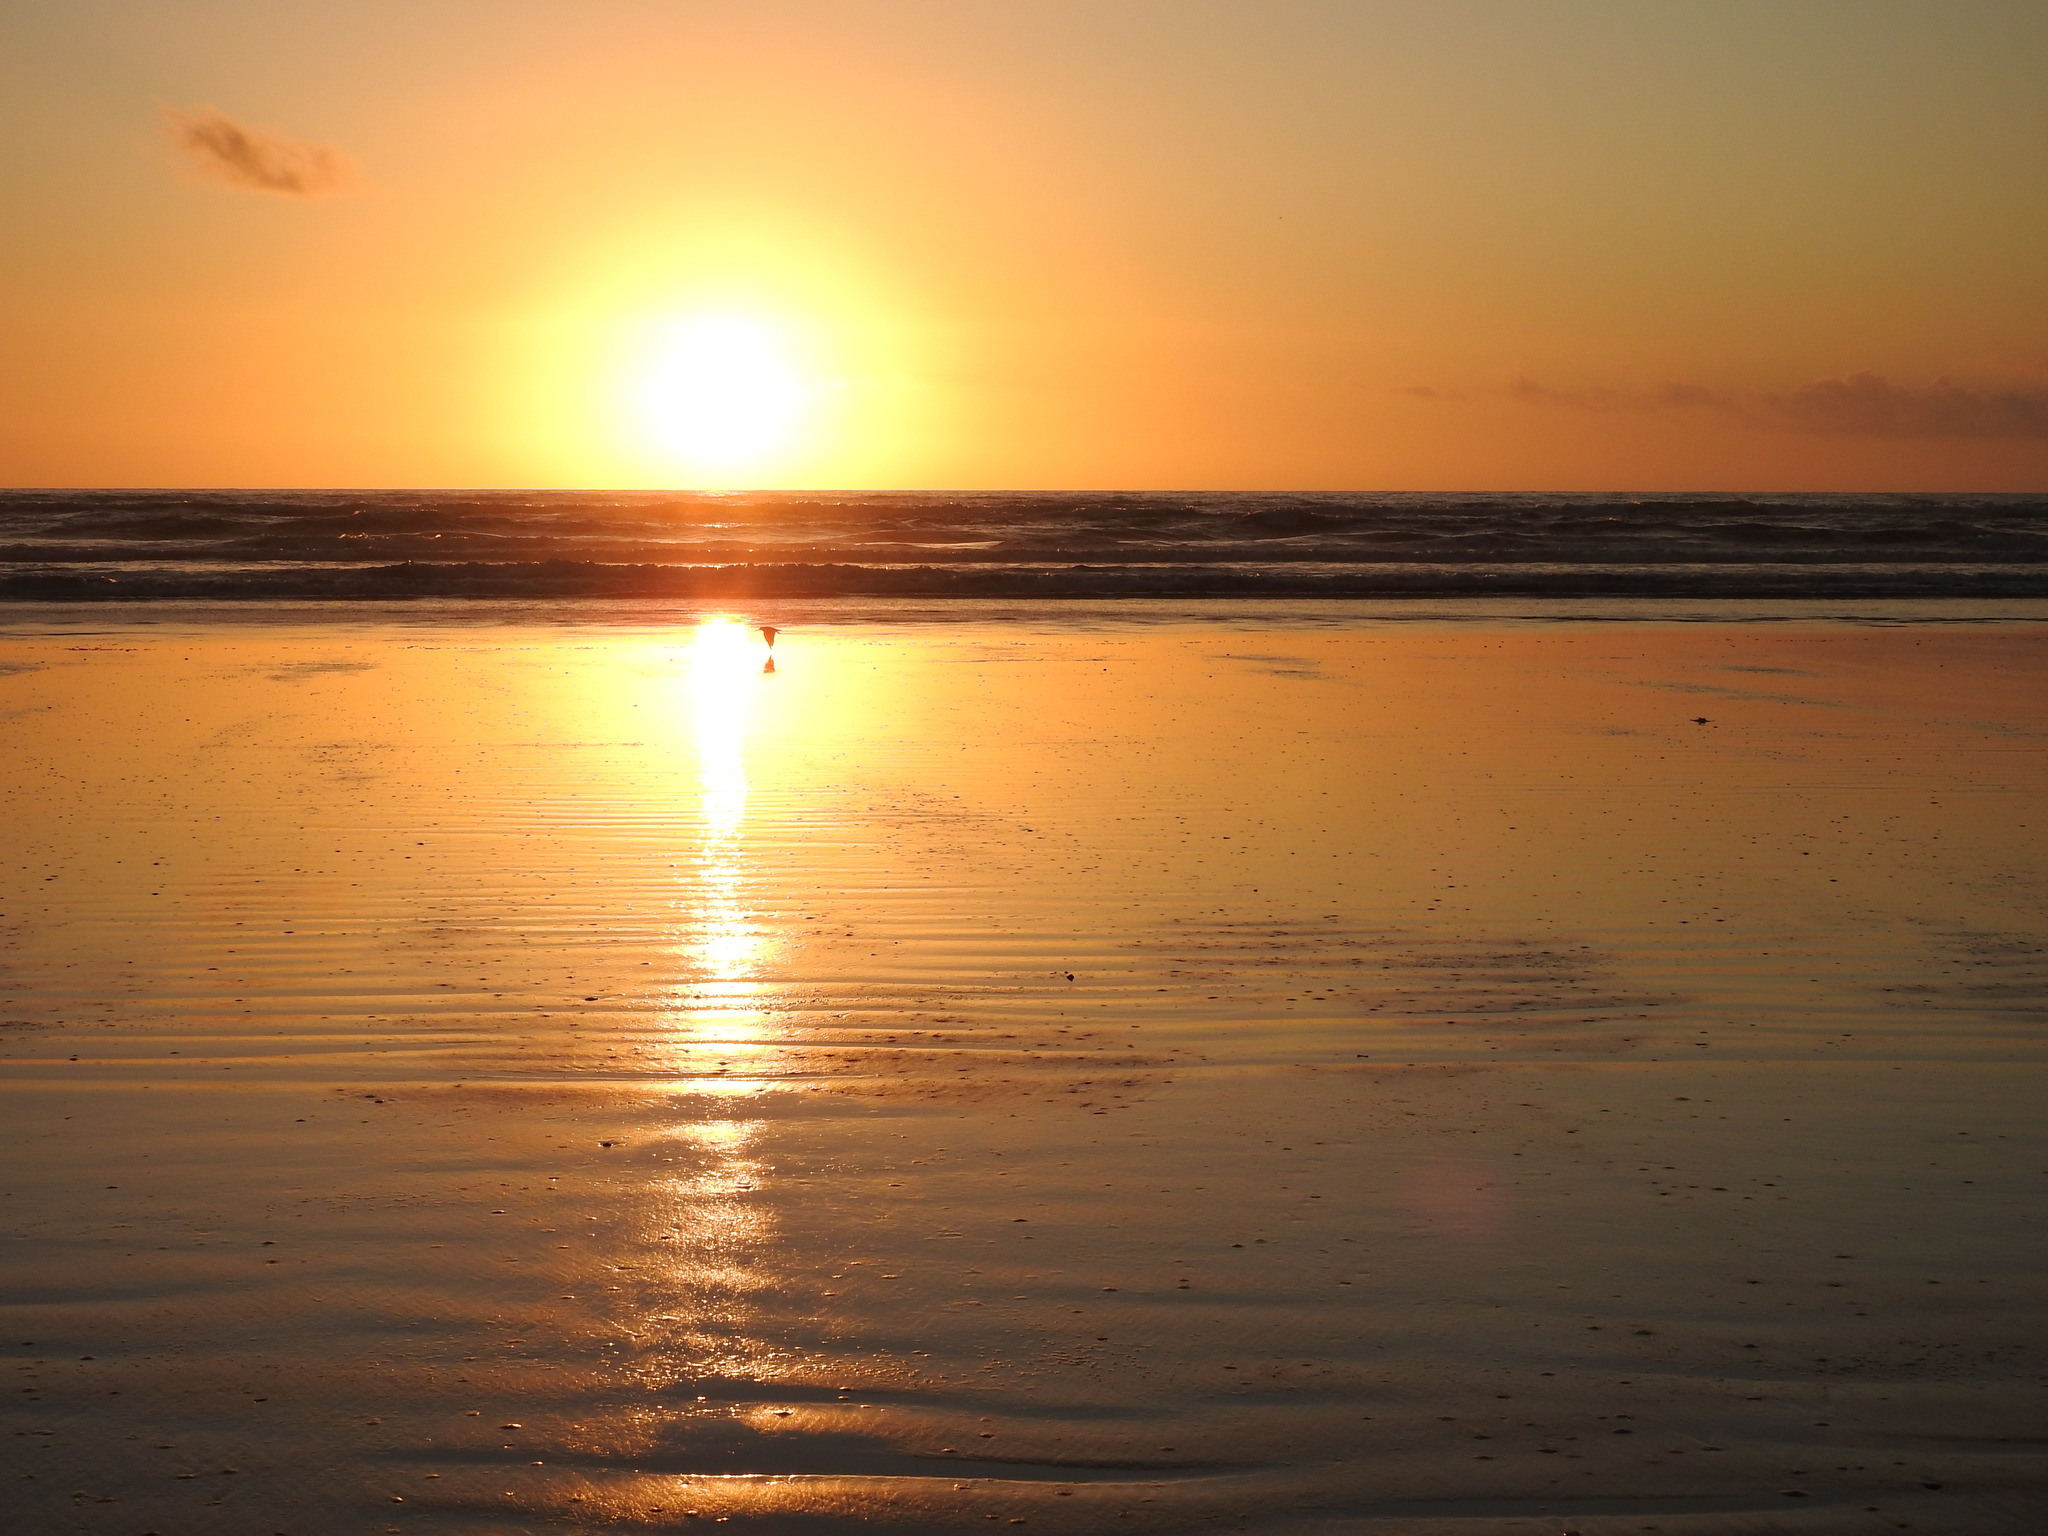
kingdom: Animalia
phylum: Chordata
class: Aves
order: Charadriiformes
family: Haematopodidae
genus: Haematopus
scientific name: Haematopus finschi
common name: South island oystercatcher
